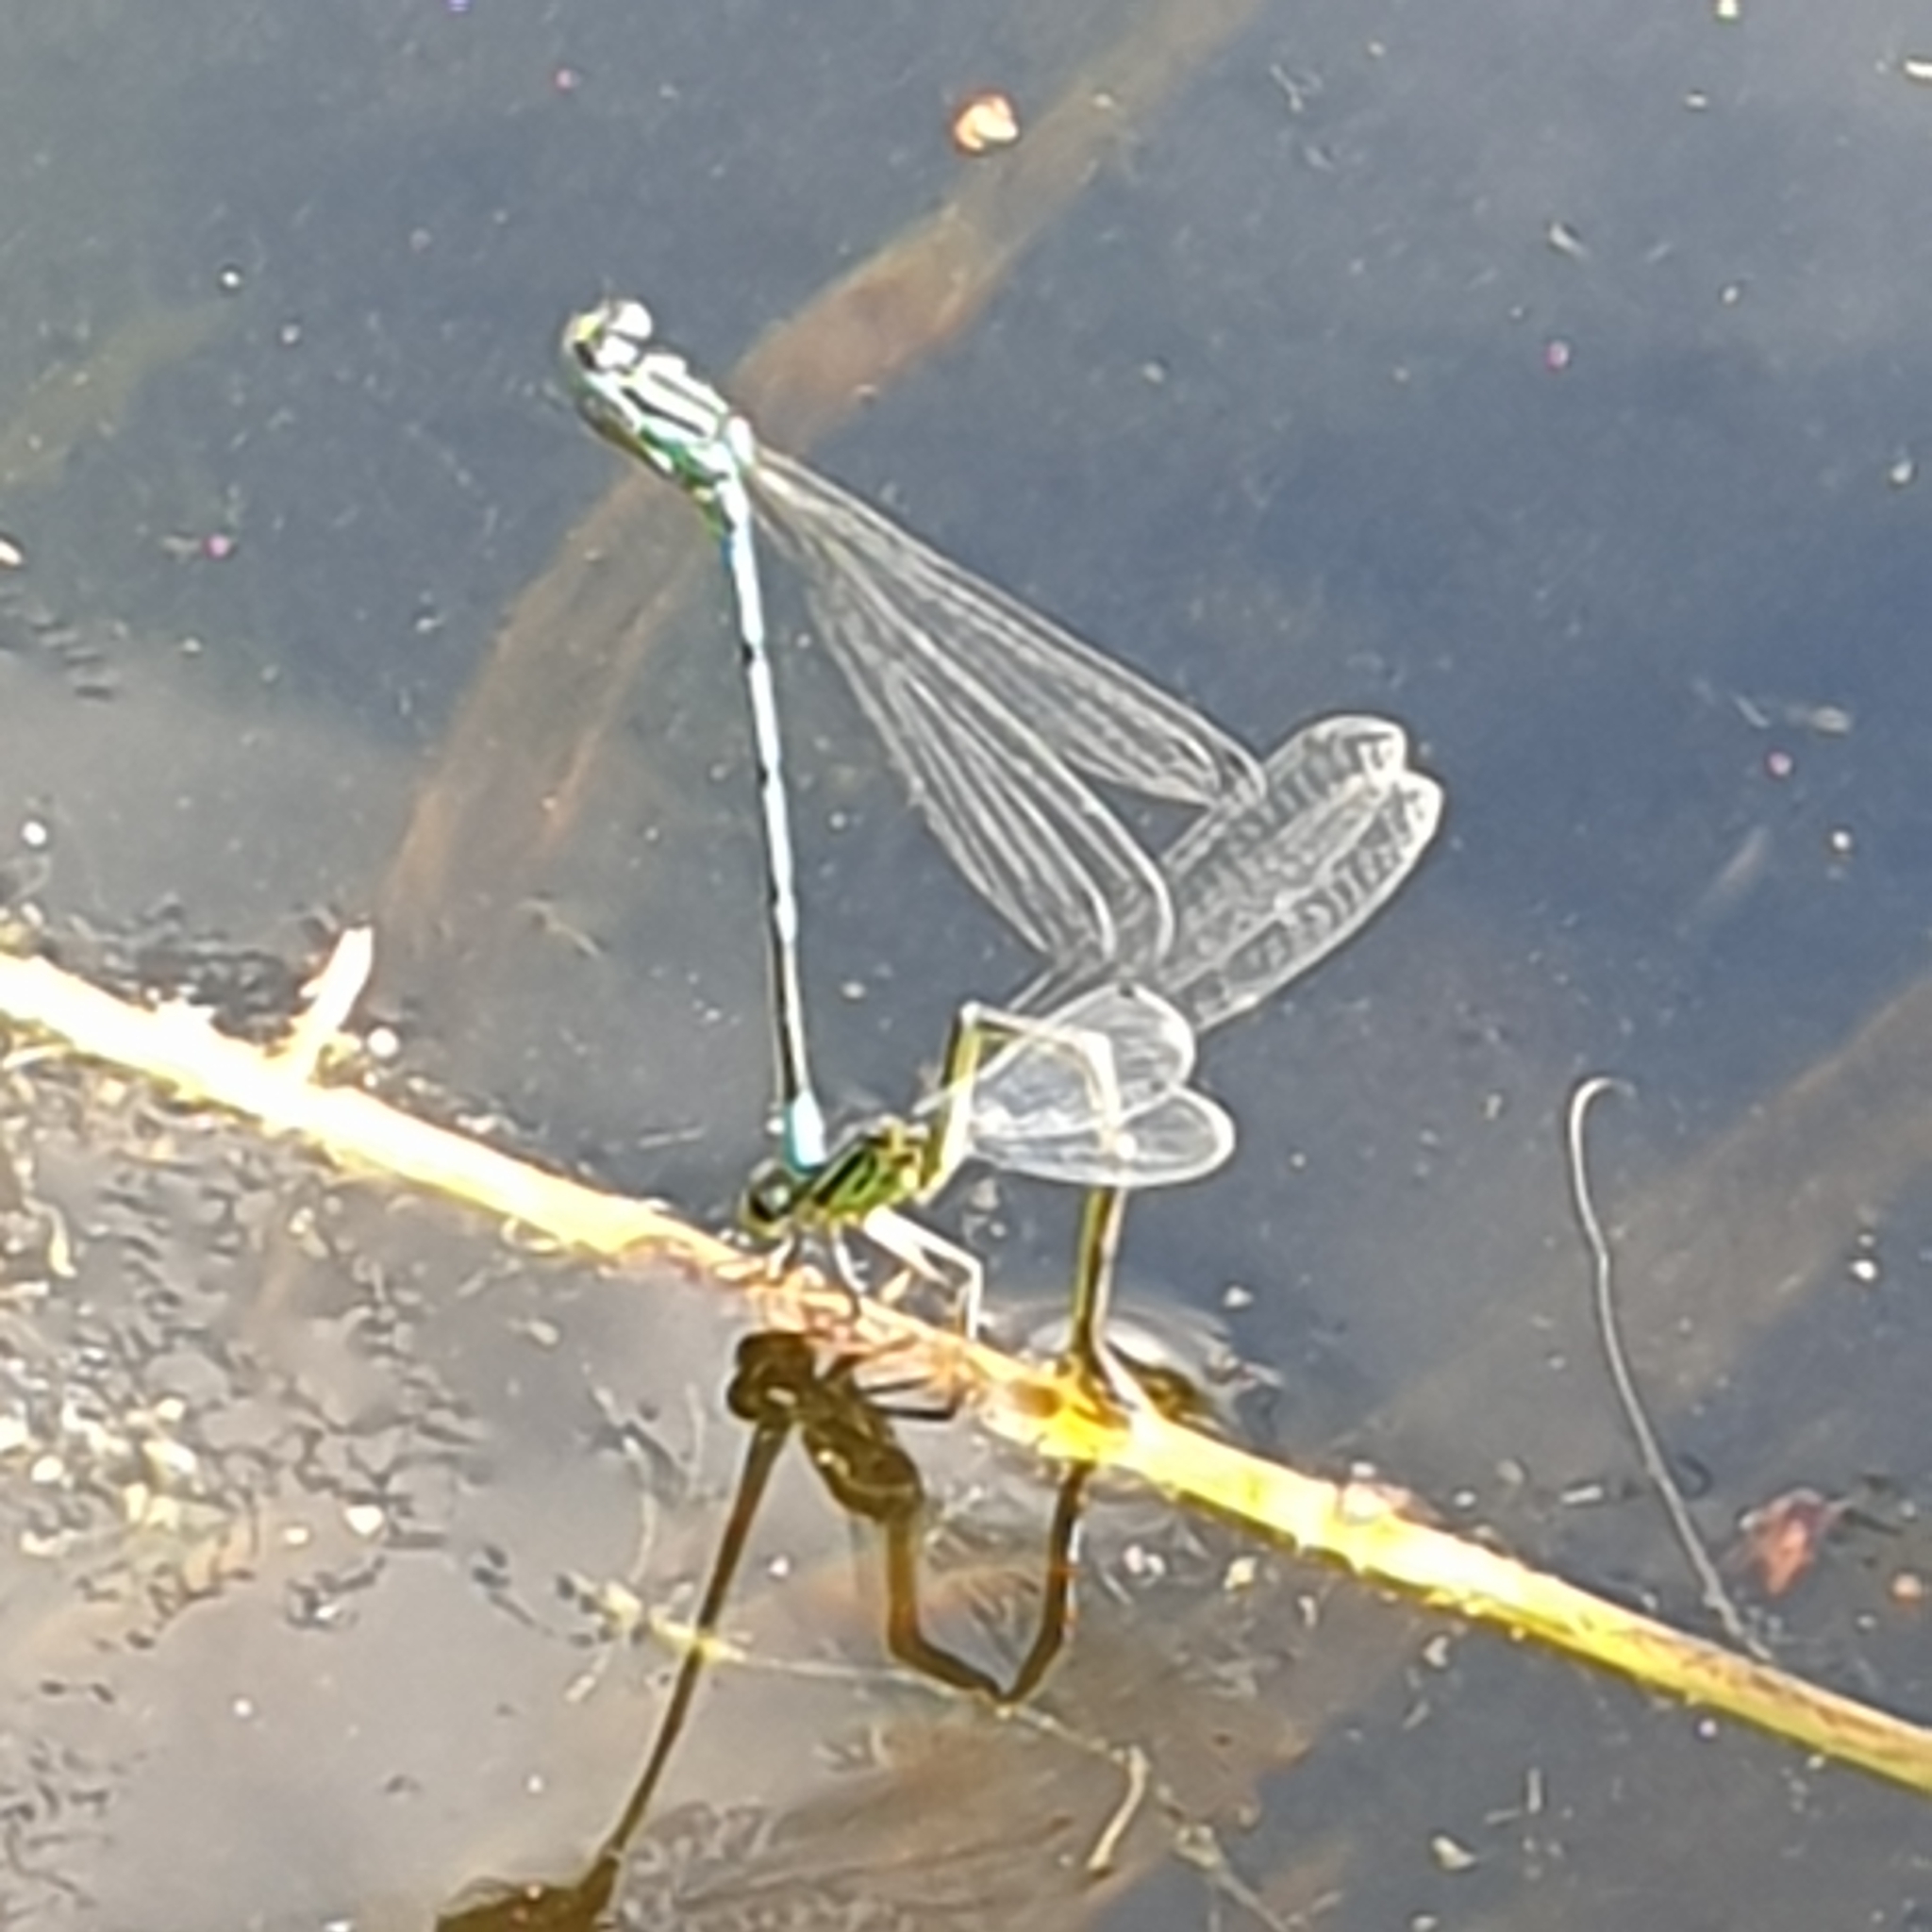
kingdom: Animalia
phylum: Arthropoda
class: Insecta
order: Odonata
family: Coenagrionidae
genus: Coenagrion
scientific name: Coenagrion puella
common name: Azure damselfly
